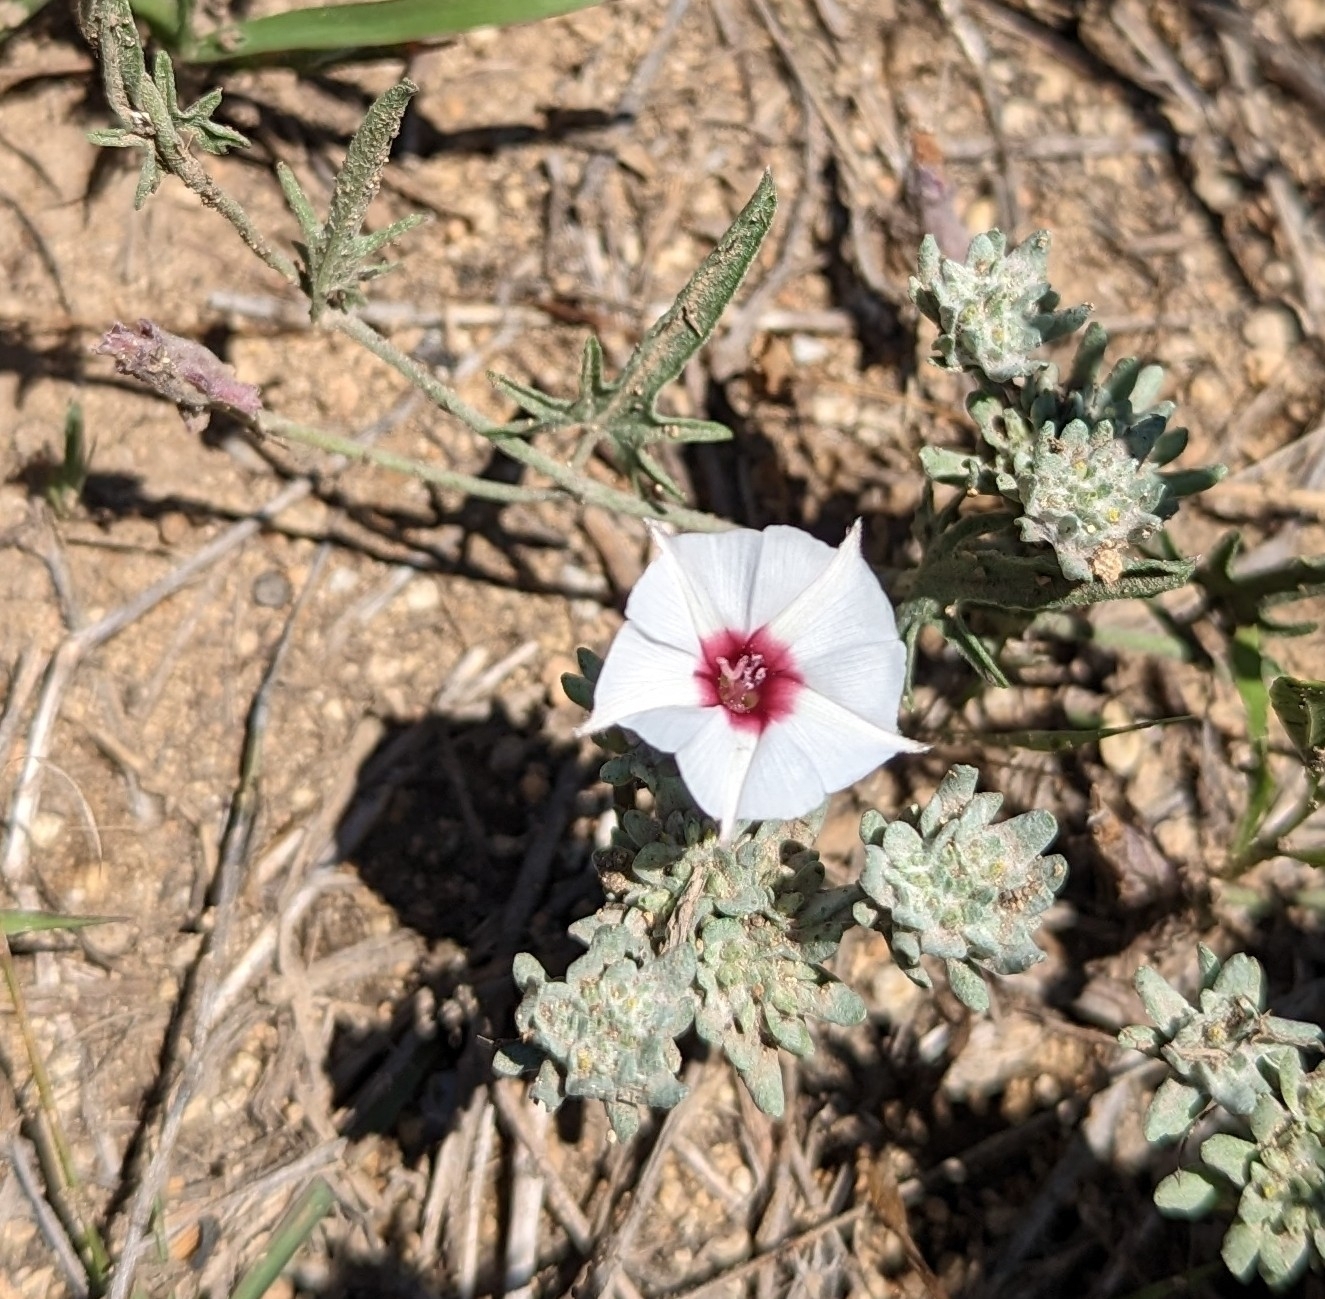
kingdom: Plantae
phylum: Tracheophyta
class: Magnoliopsida
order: Solanales
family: Convolvulaceae
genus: Convolvulus
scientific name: Convolvulus equitans
